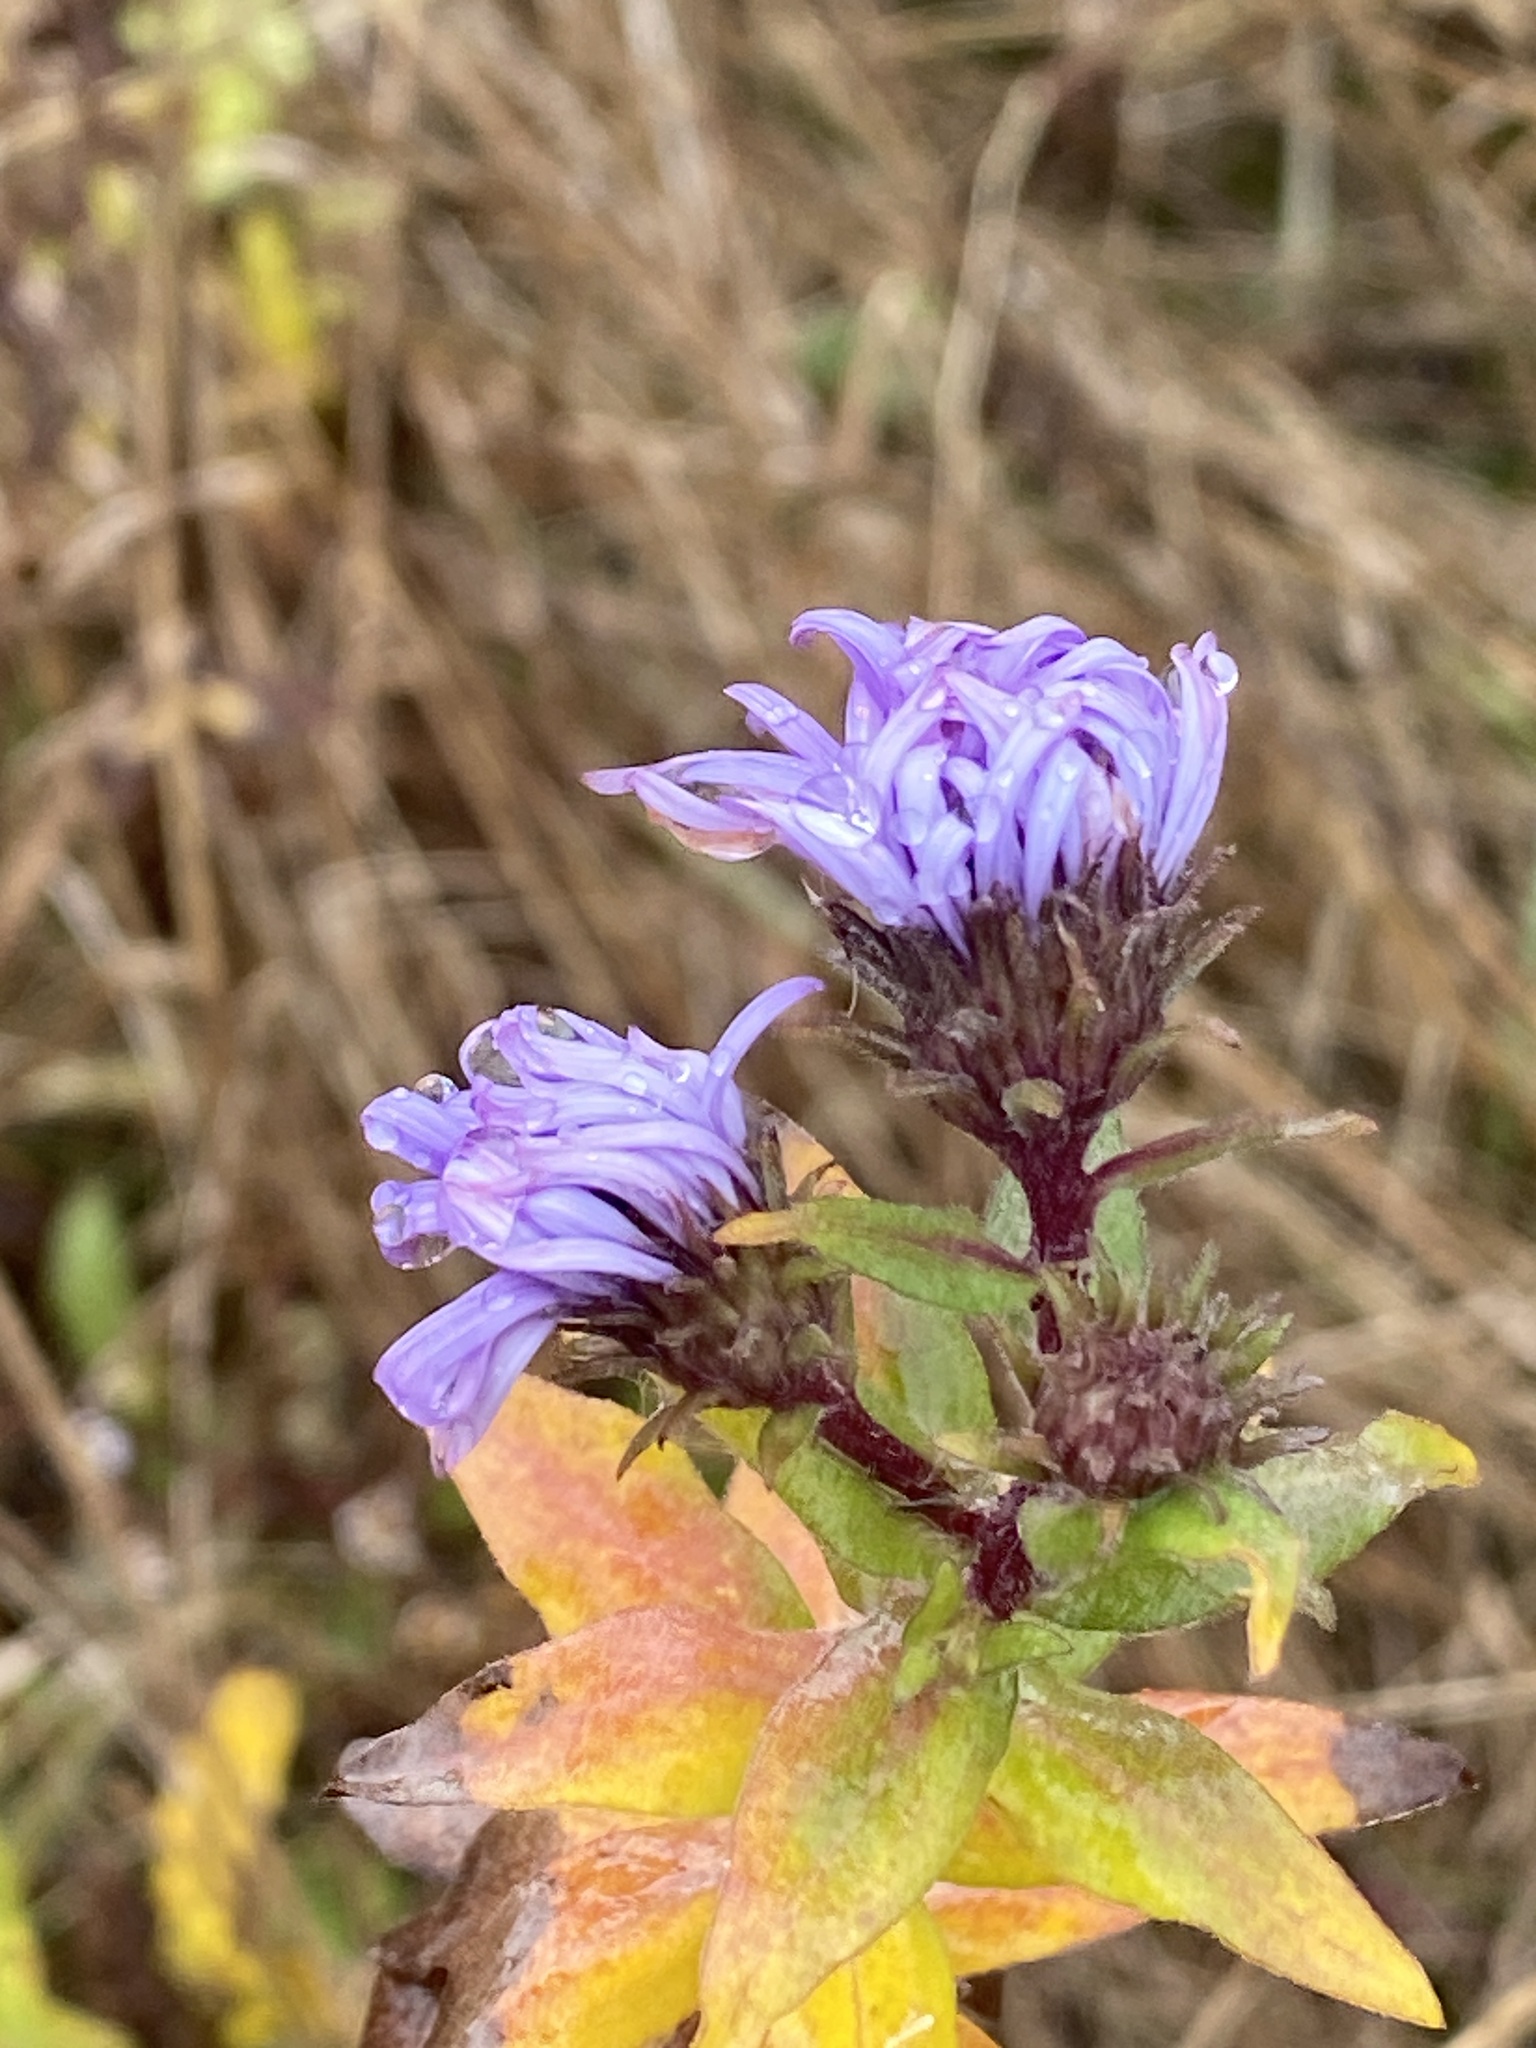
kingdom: Plantae
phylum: Tracheophyta
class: Magnoliopsida
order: Asterales
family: Asteraceae
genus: Symphyotrichum
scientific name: Symphyotrichum novae-angliae
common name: Michaelmas daisy
